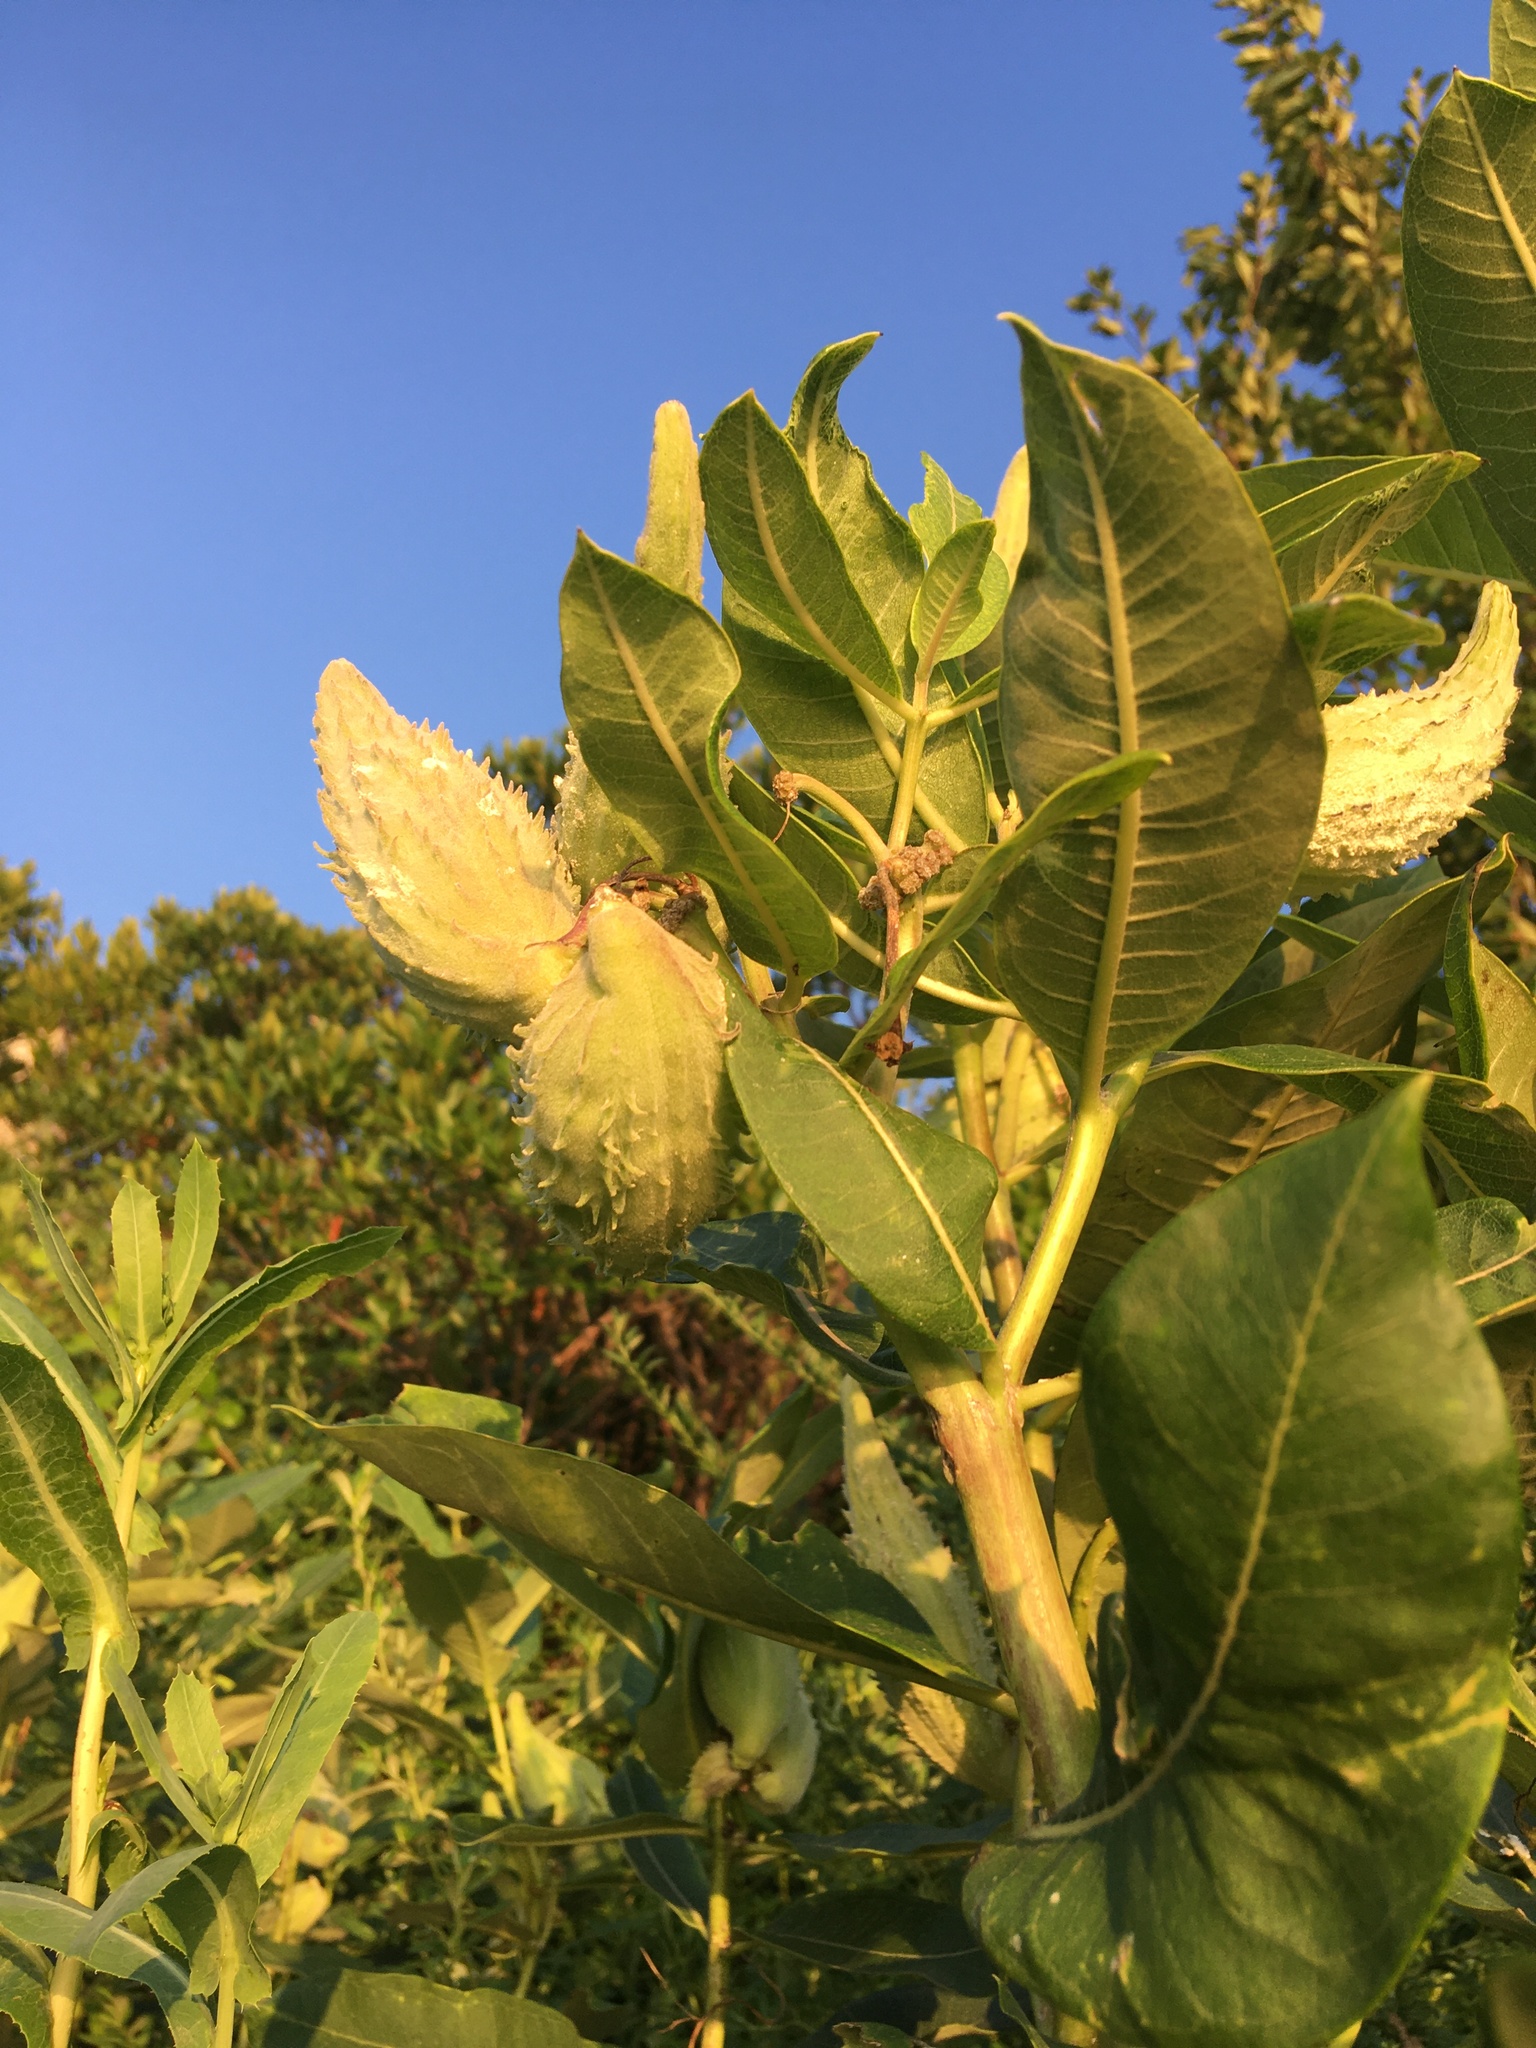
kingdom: Plantae
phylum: Tracheophyta
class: Magnoliopsida
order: Gentianales
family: Apocynaceae
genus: Asclepias
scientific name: Asclepias syriaca
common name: Common milkweed
